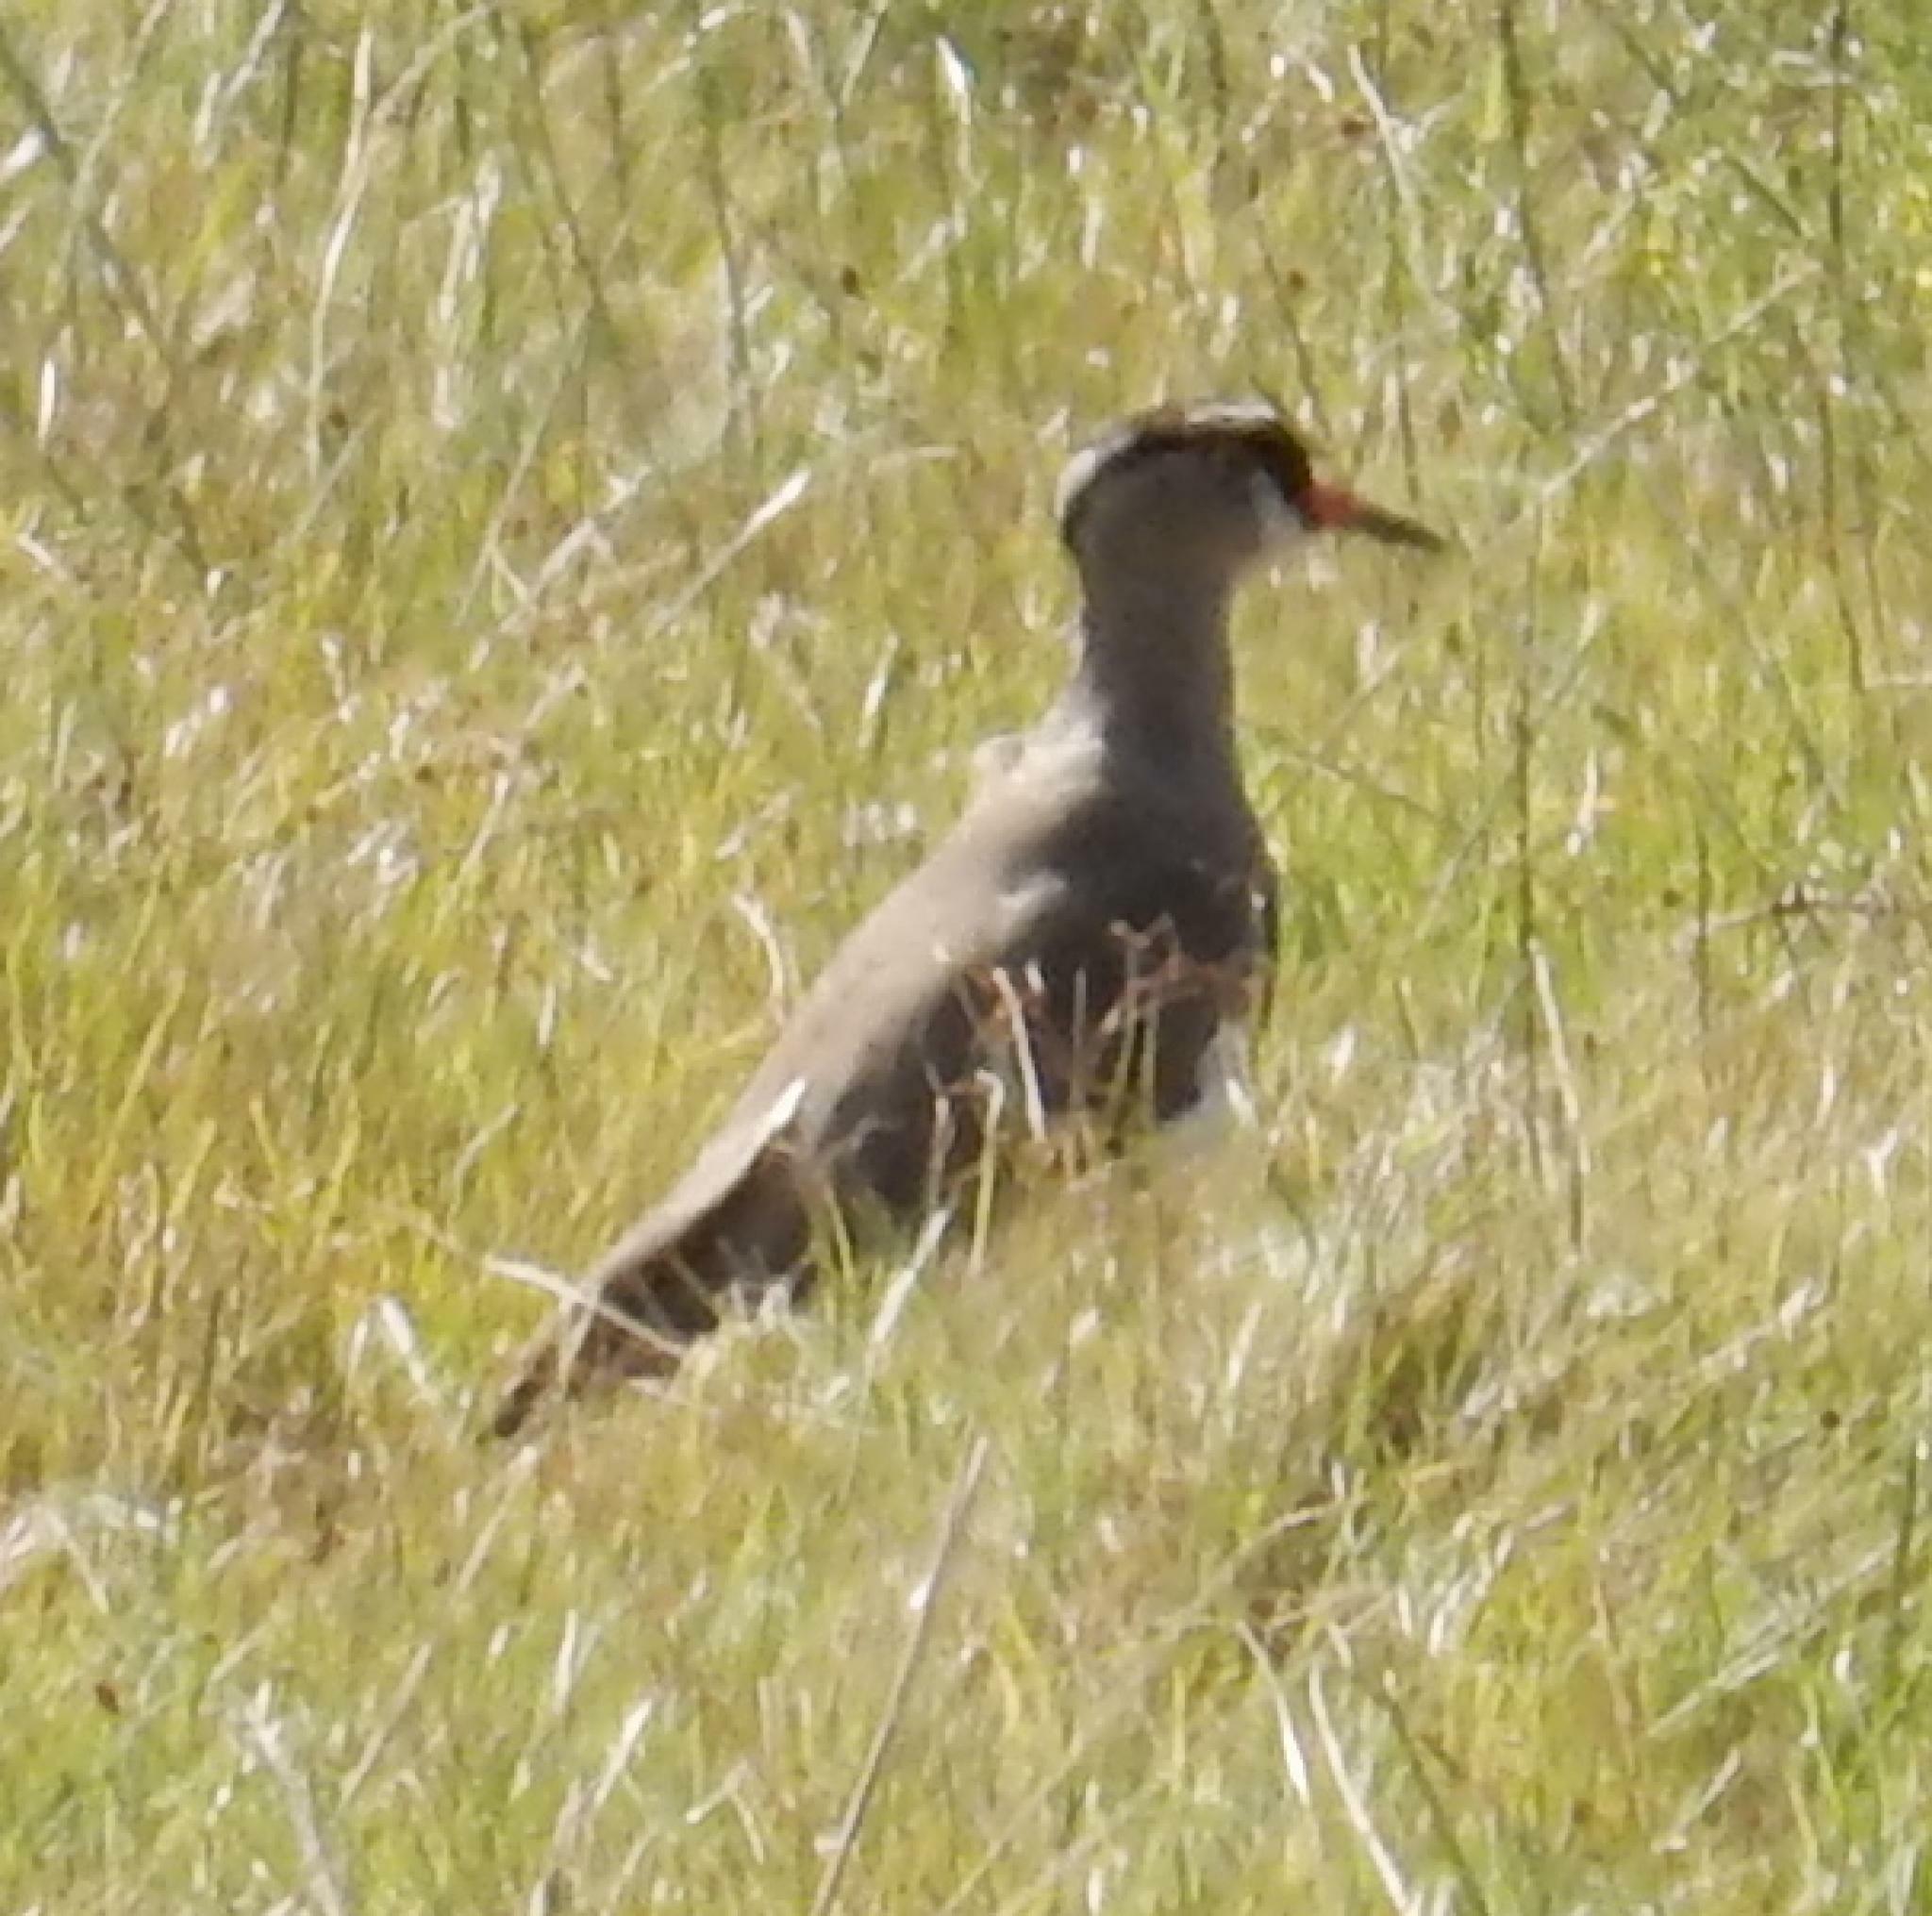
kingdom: Animalia
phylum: Chordata
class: Aves
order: Charadriiformes
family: Charadriidae
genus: Vanellus
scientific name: Vanellus coronatus
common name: Crowned lapwing
